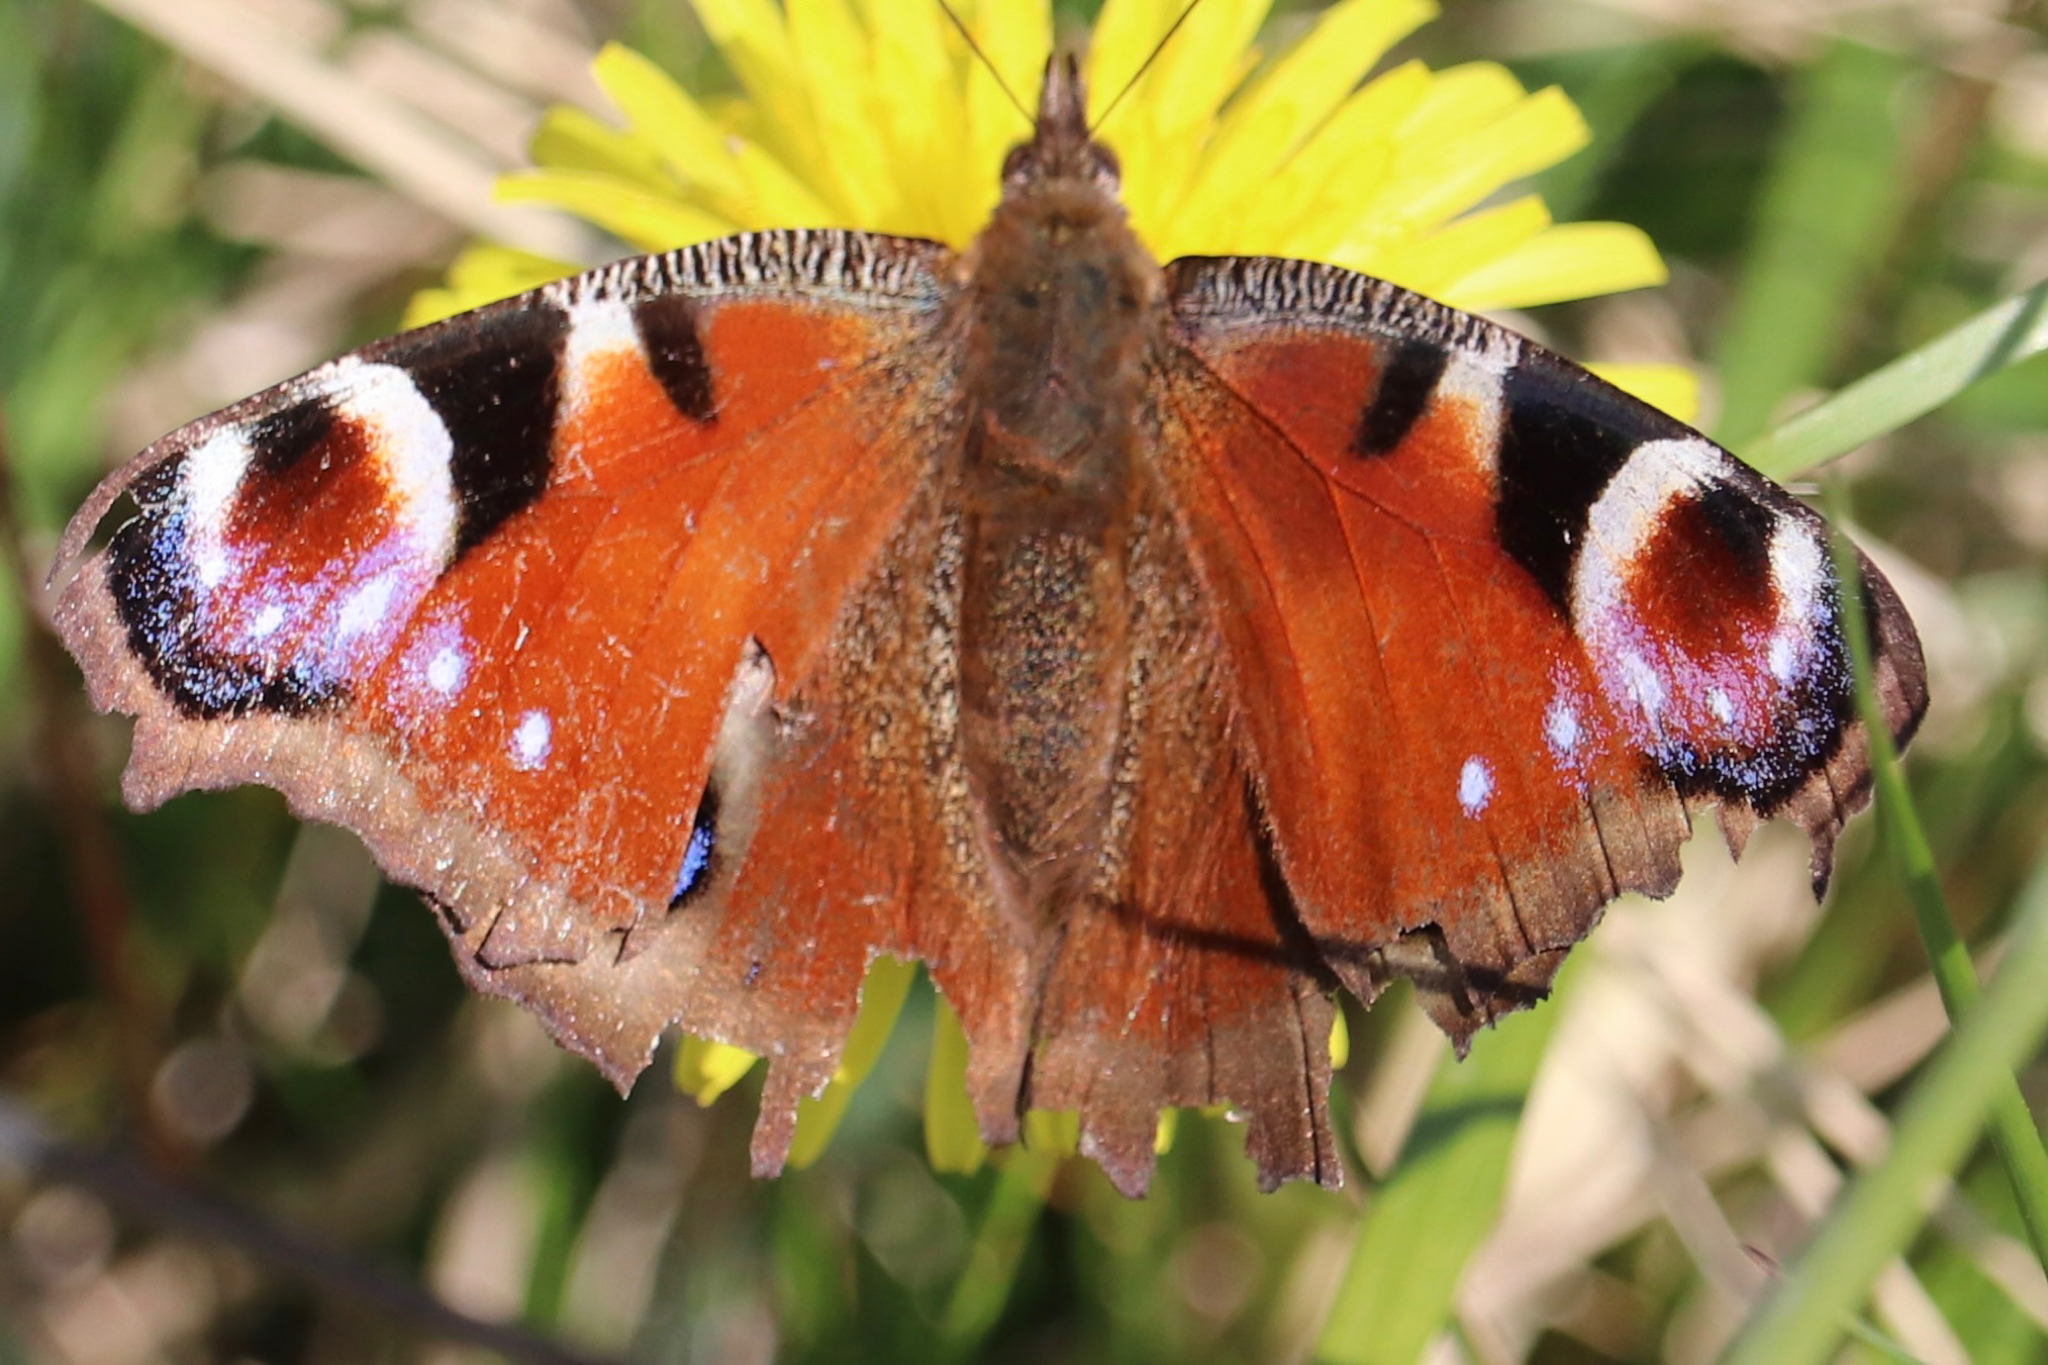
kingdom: Animalia
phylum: Arthropoda
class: Insecta
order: Lepidoptera
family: Nymphalidae
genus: Aglais
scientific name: Aglais io
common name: Peacock
